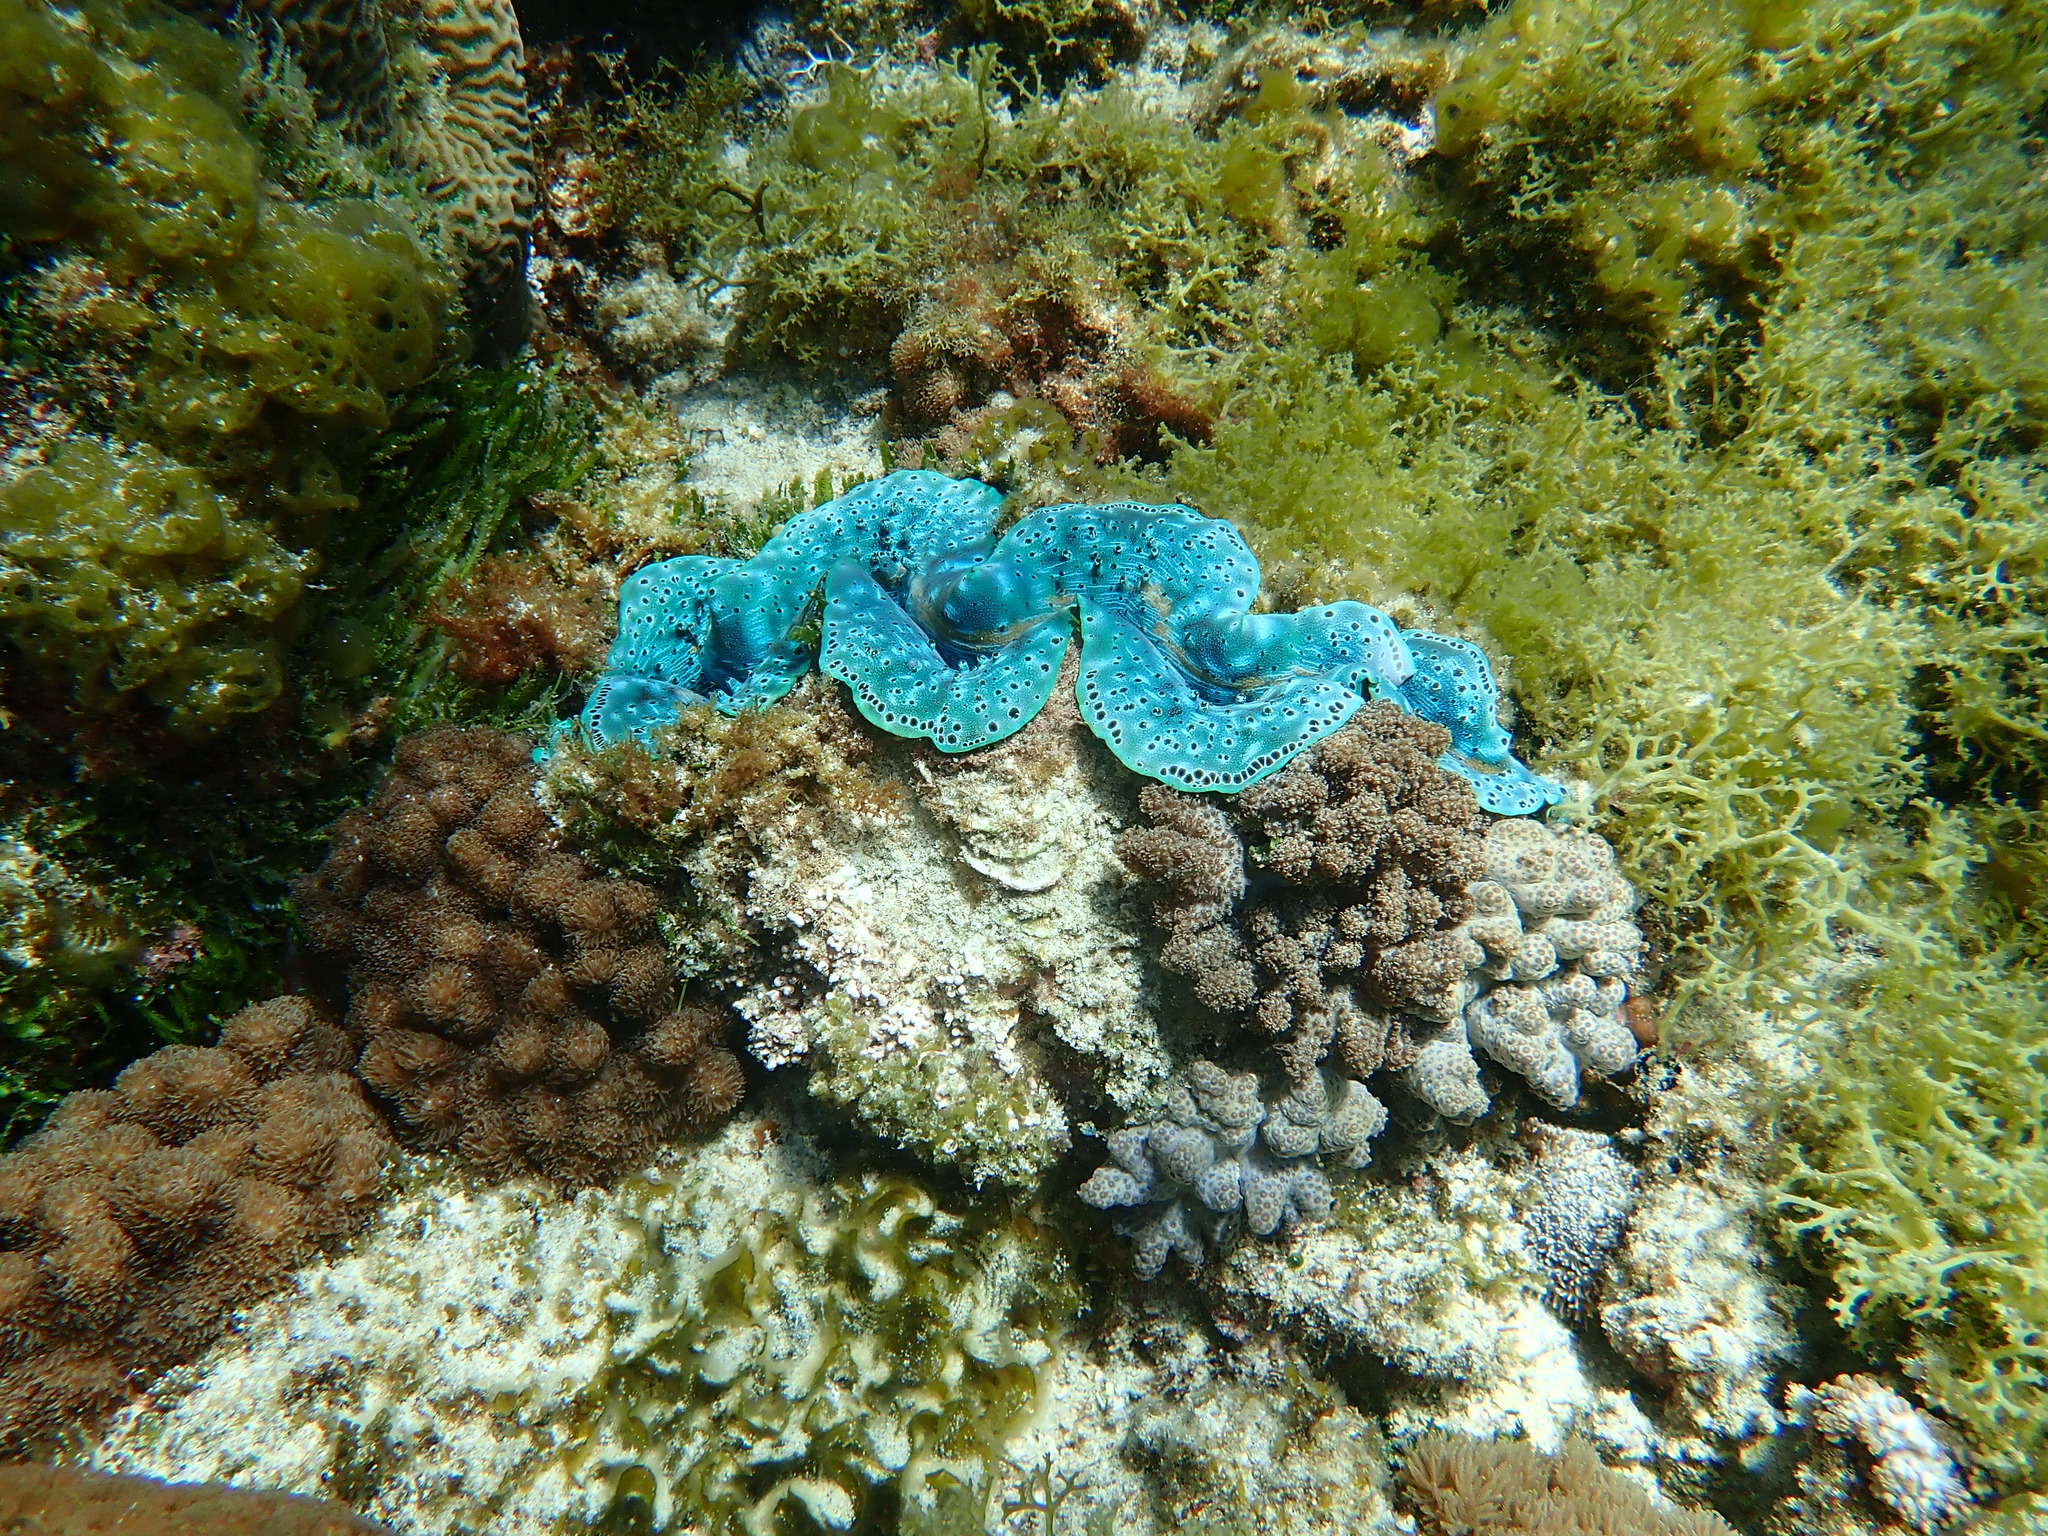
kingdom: Animalia
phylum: Mollusca
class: Bivalvia
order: Cardiida
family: Cardiidae
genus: Tridacna
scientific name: Tridacna maxima
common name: Small giant clam
